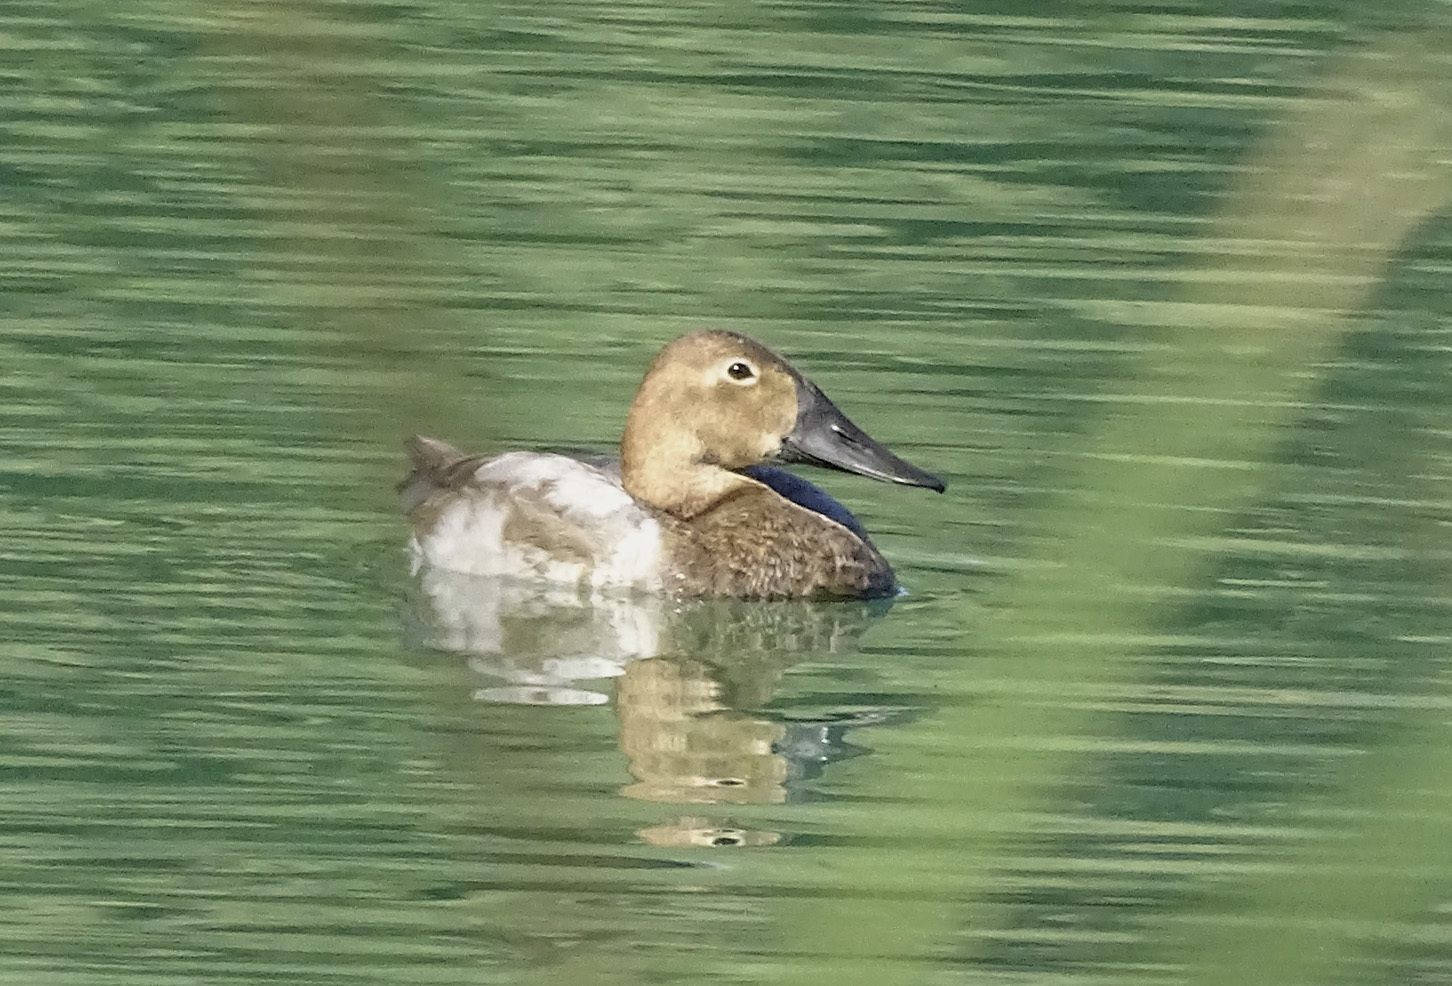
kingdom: Animalia
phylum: Chordata
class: Aves
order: Anseriformes
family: Anatidae
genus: Aythya
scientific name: Aythya valisineria
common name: Canvasback
